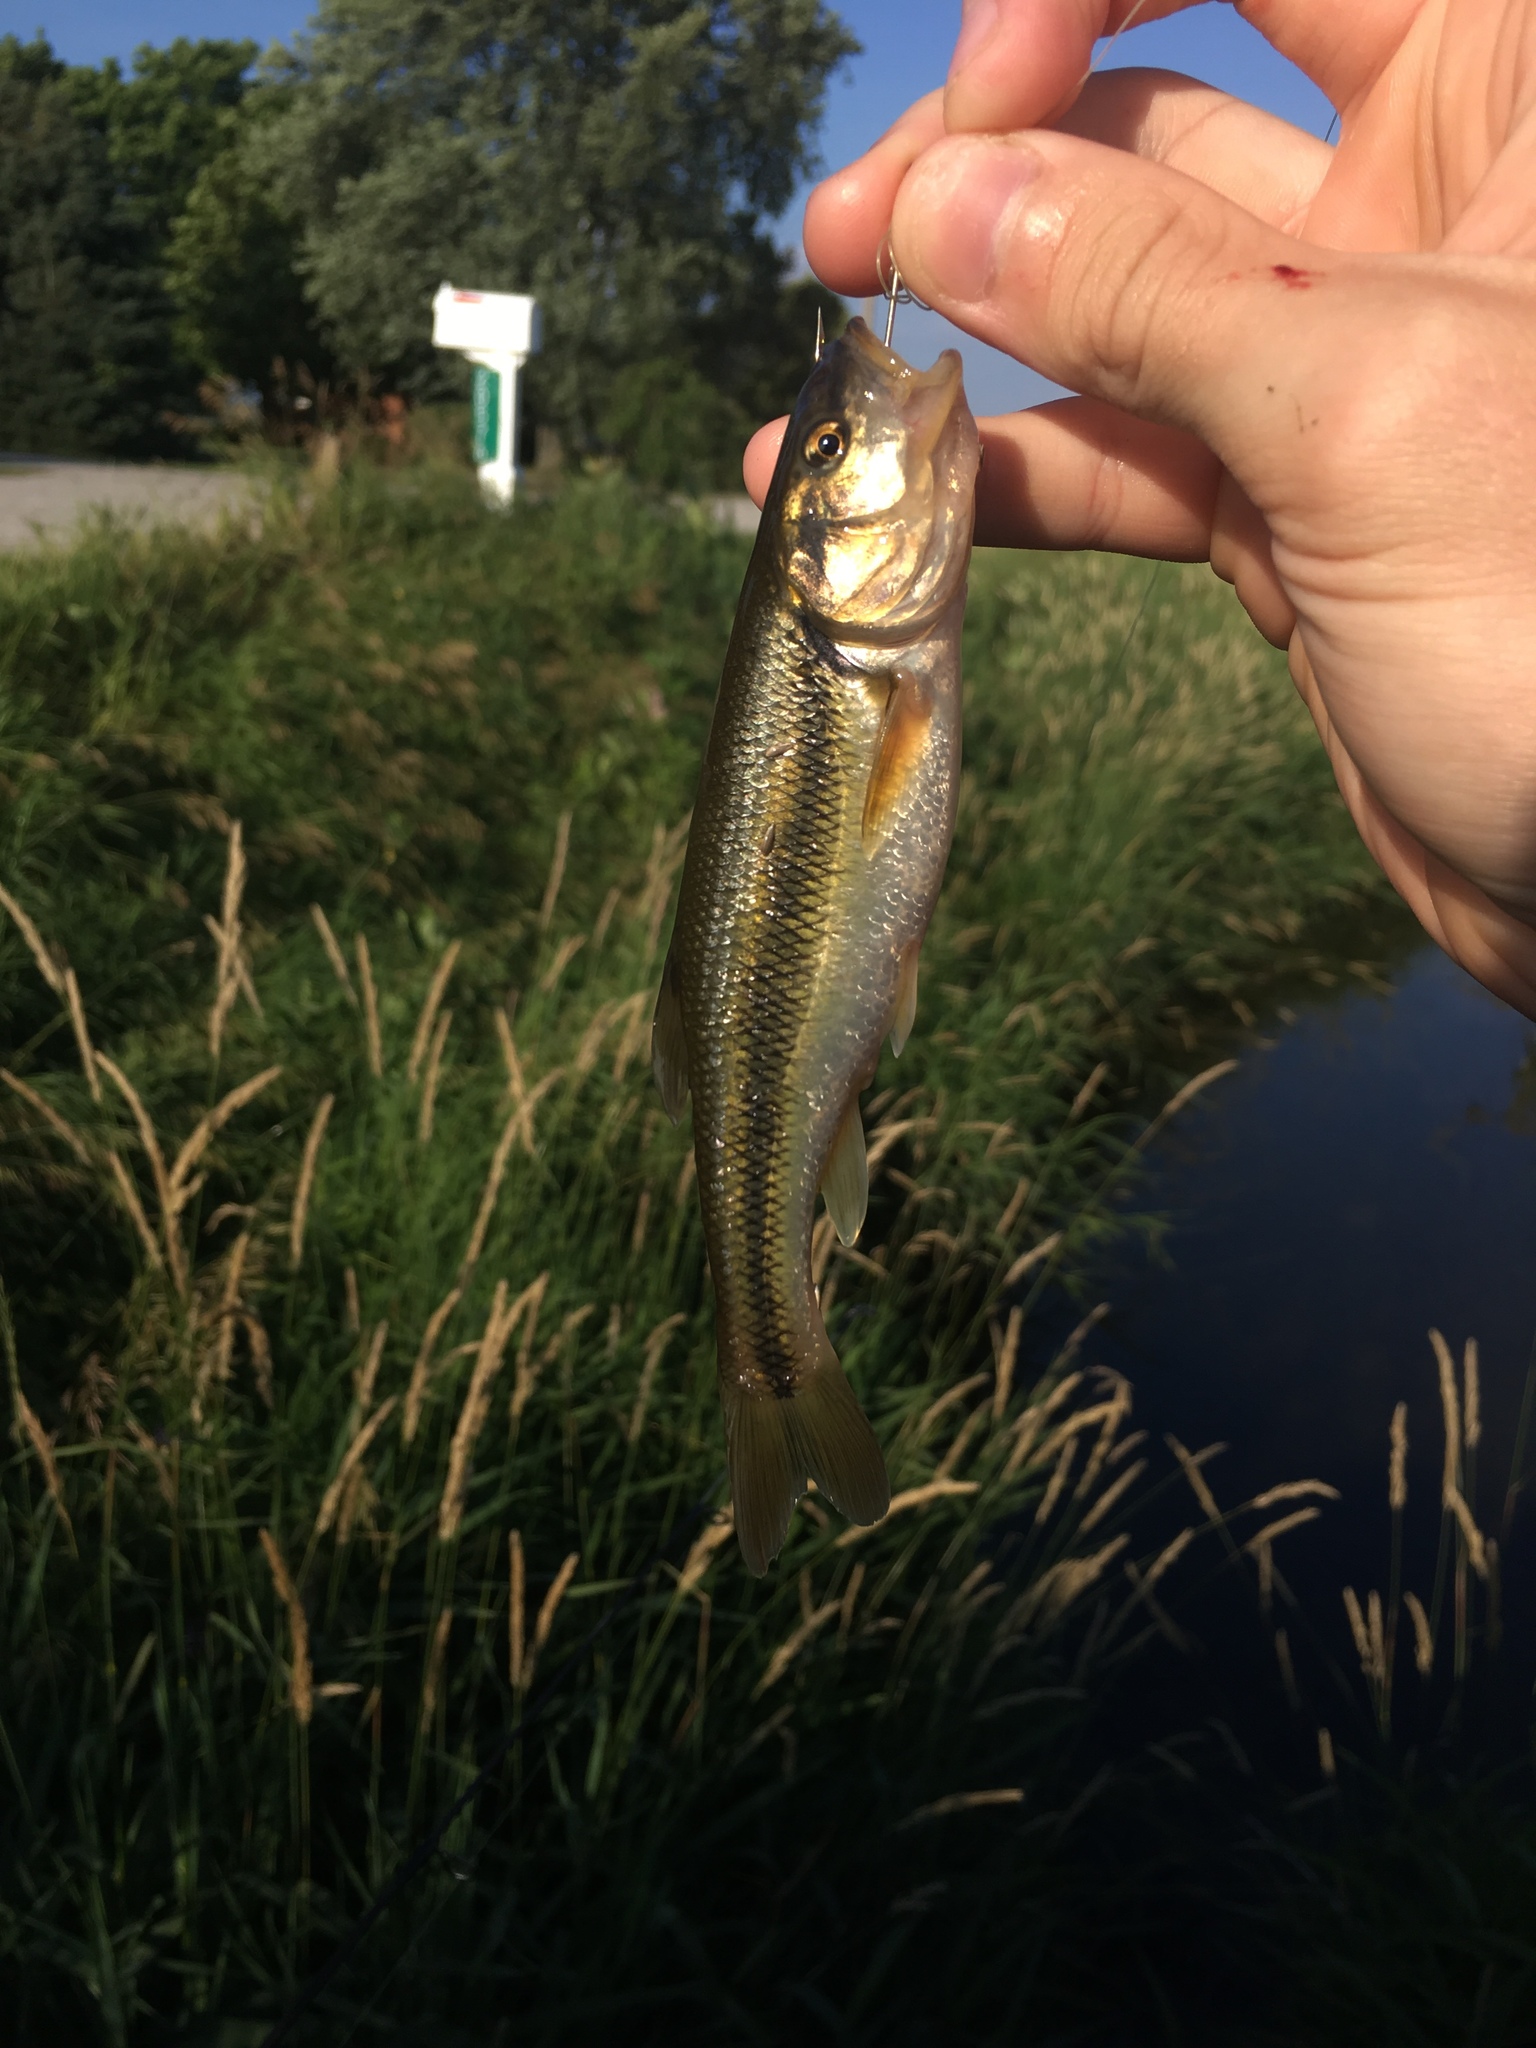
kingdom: Animalia
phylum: Chordata
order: Cypriniformes
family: Cyprinidae
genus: Semotilus
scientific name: Semotilus atromaculatus
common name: Creek chub
